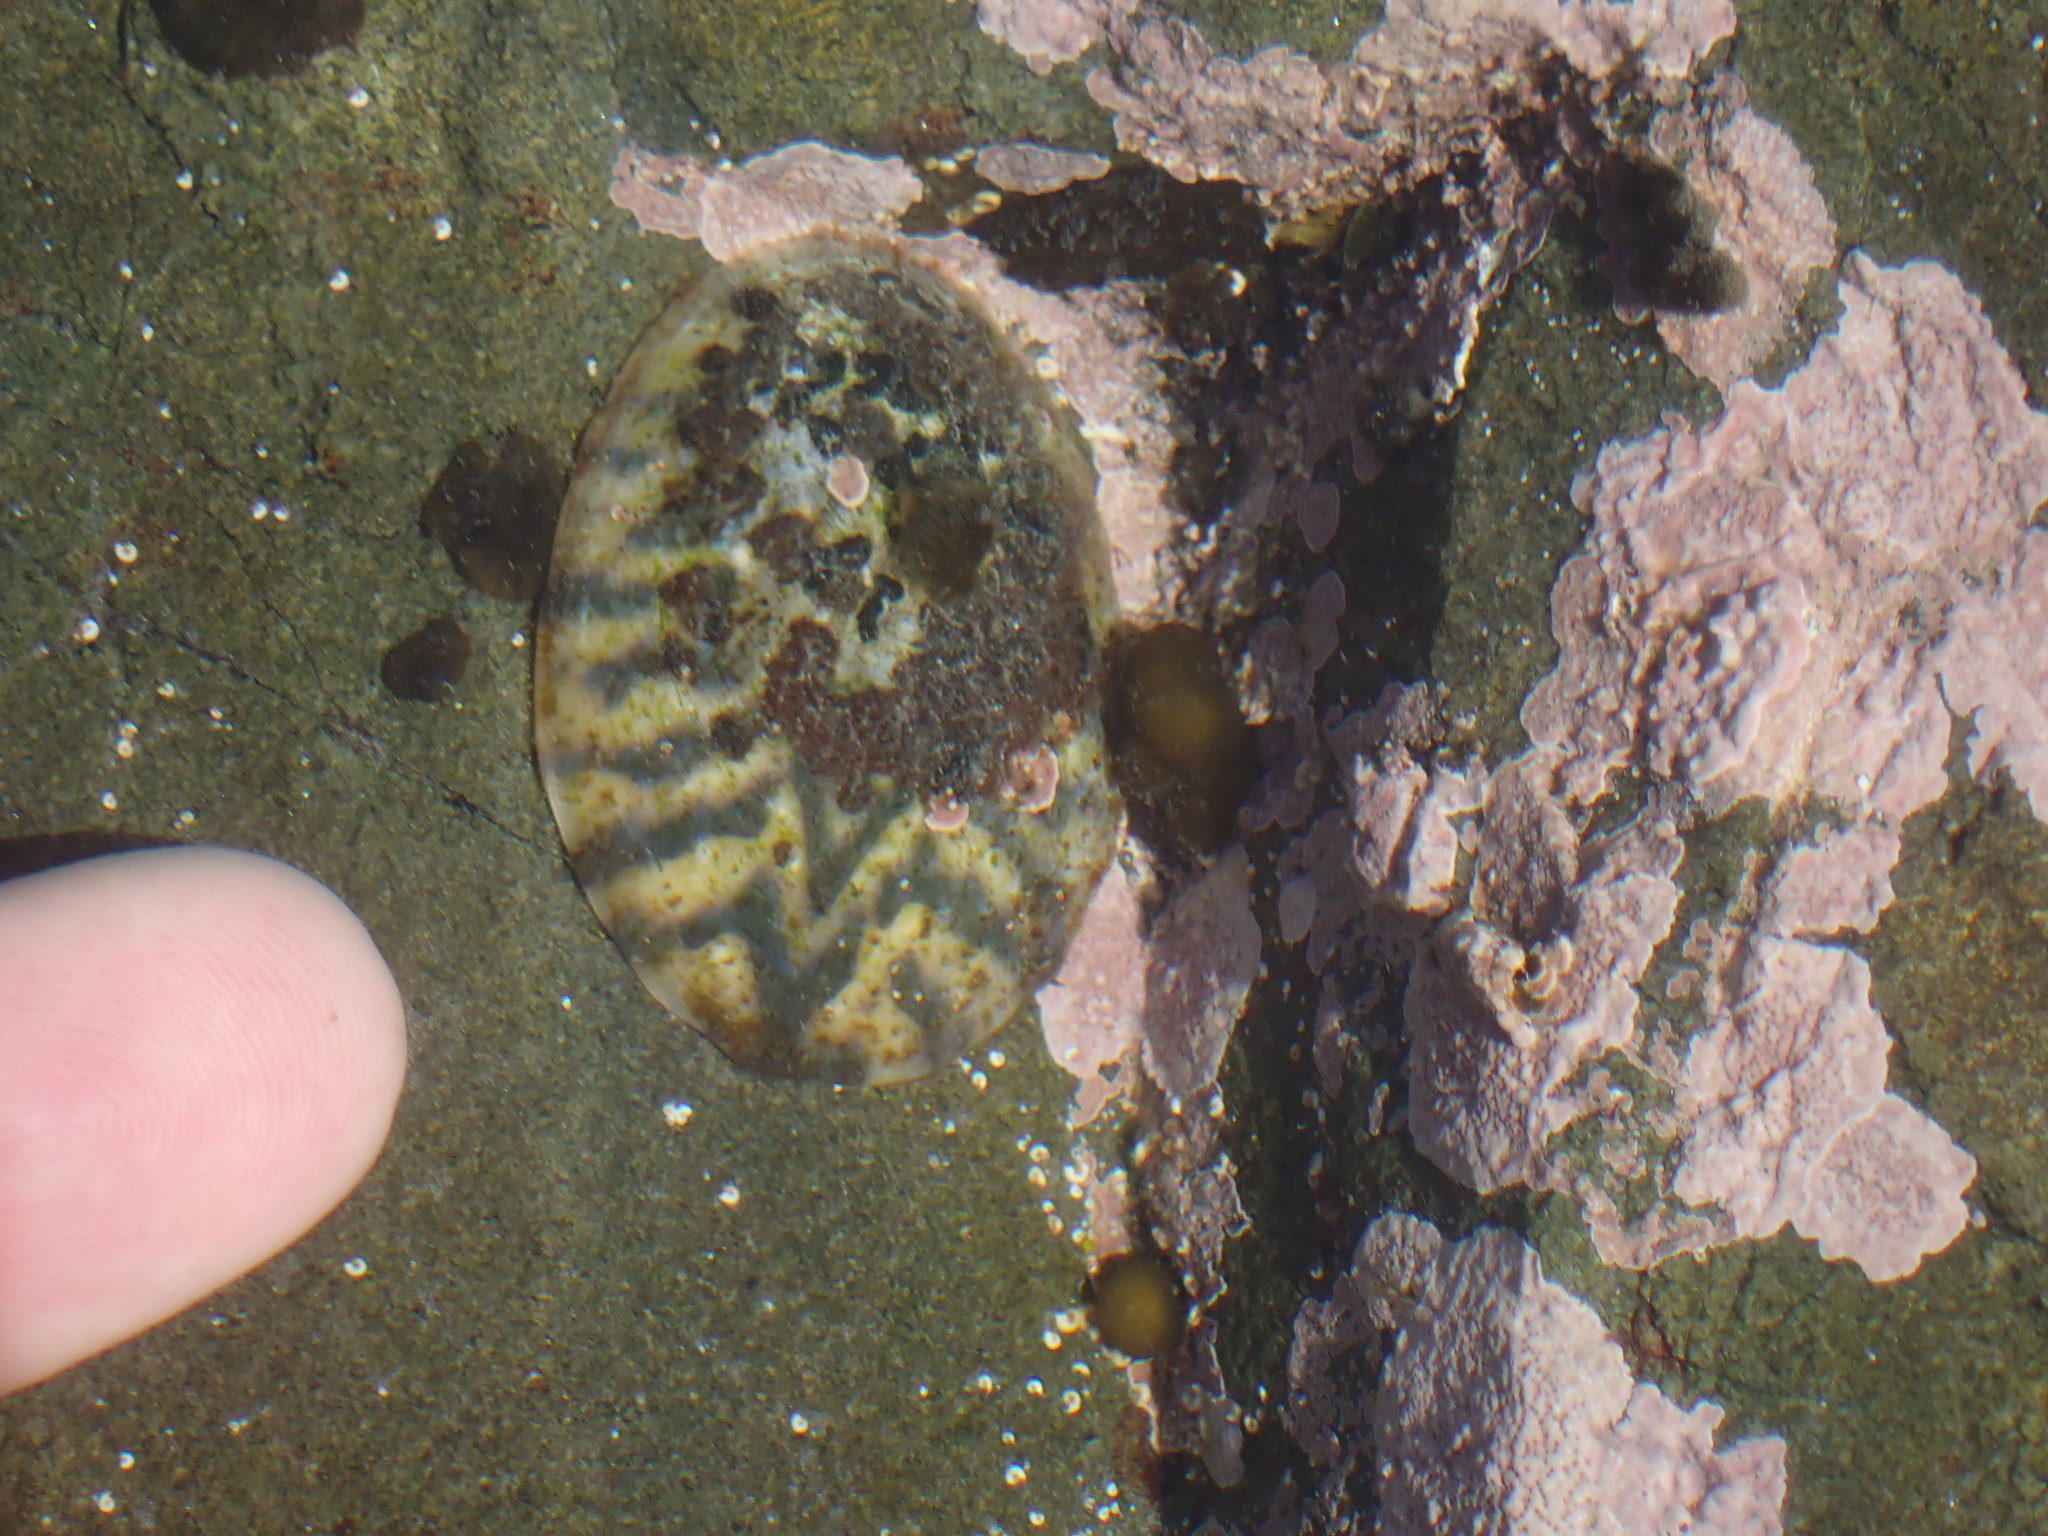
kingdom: Animalia
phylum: Mollusca
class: Gastropoda
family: Nacellidae
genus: Cellana
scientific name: Cellana radians
